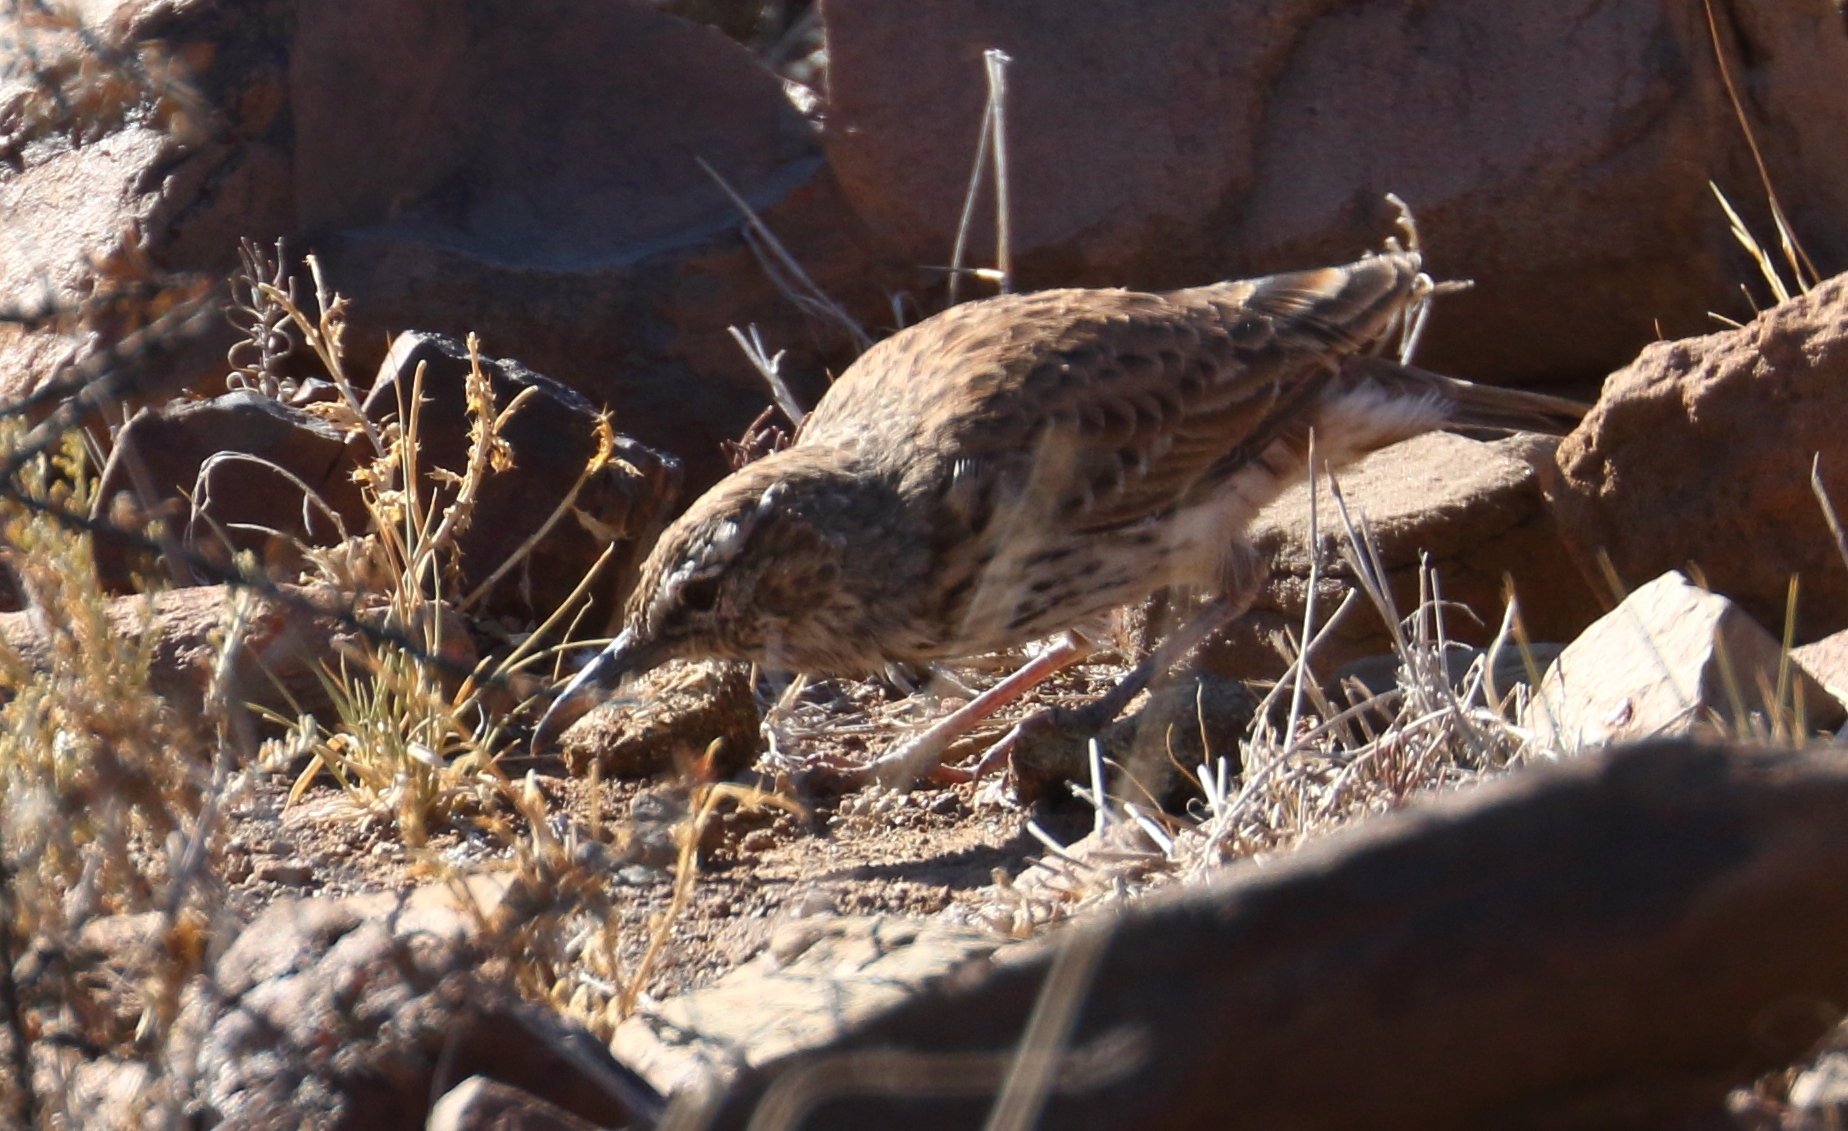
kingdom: Animalia
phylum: Chordata
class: Aves
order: Passeriformes
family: Alaudidae
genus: Certhilauda
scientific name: Certhilauda subcoronata
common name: Karoo long-billed lark
